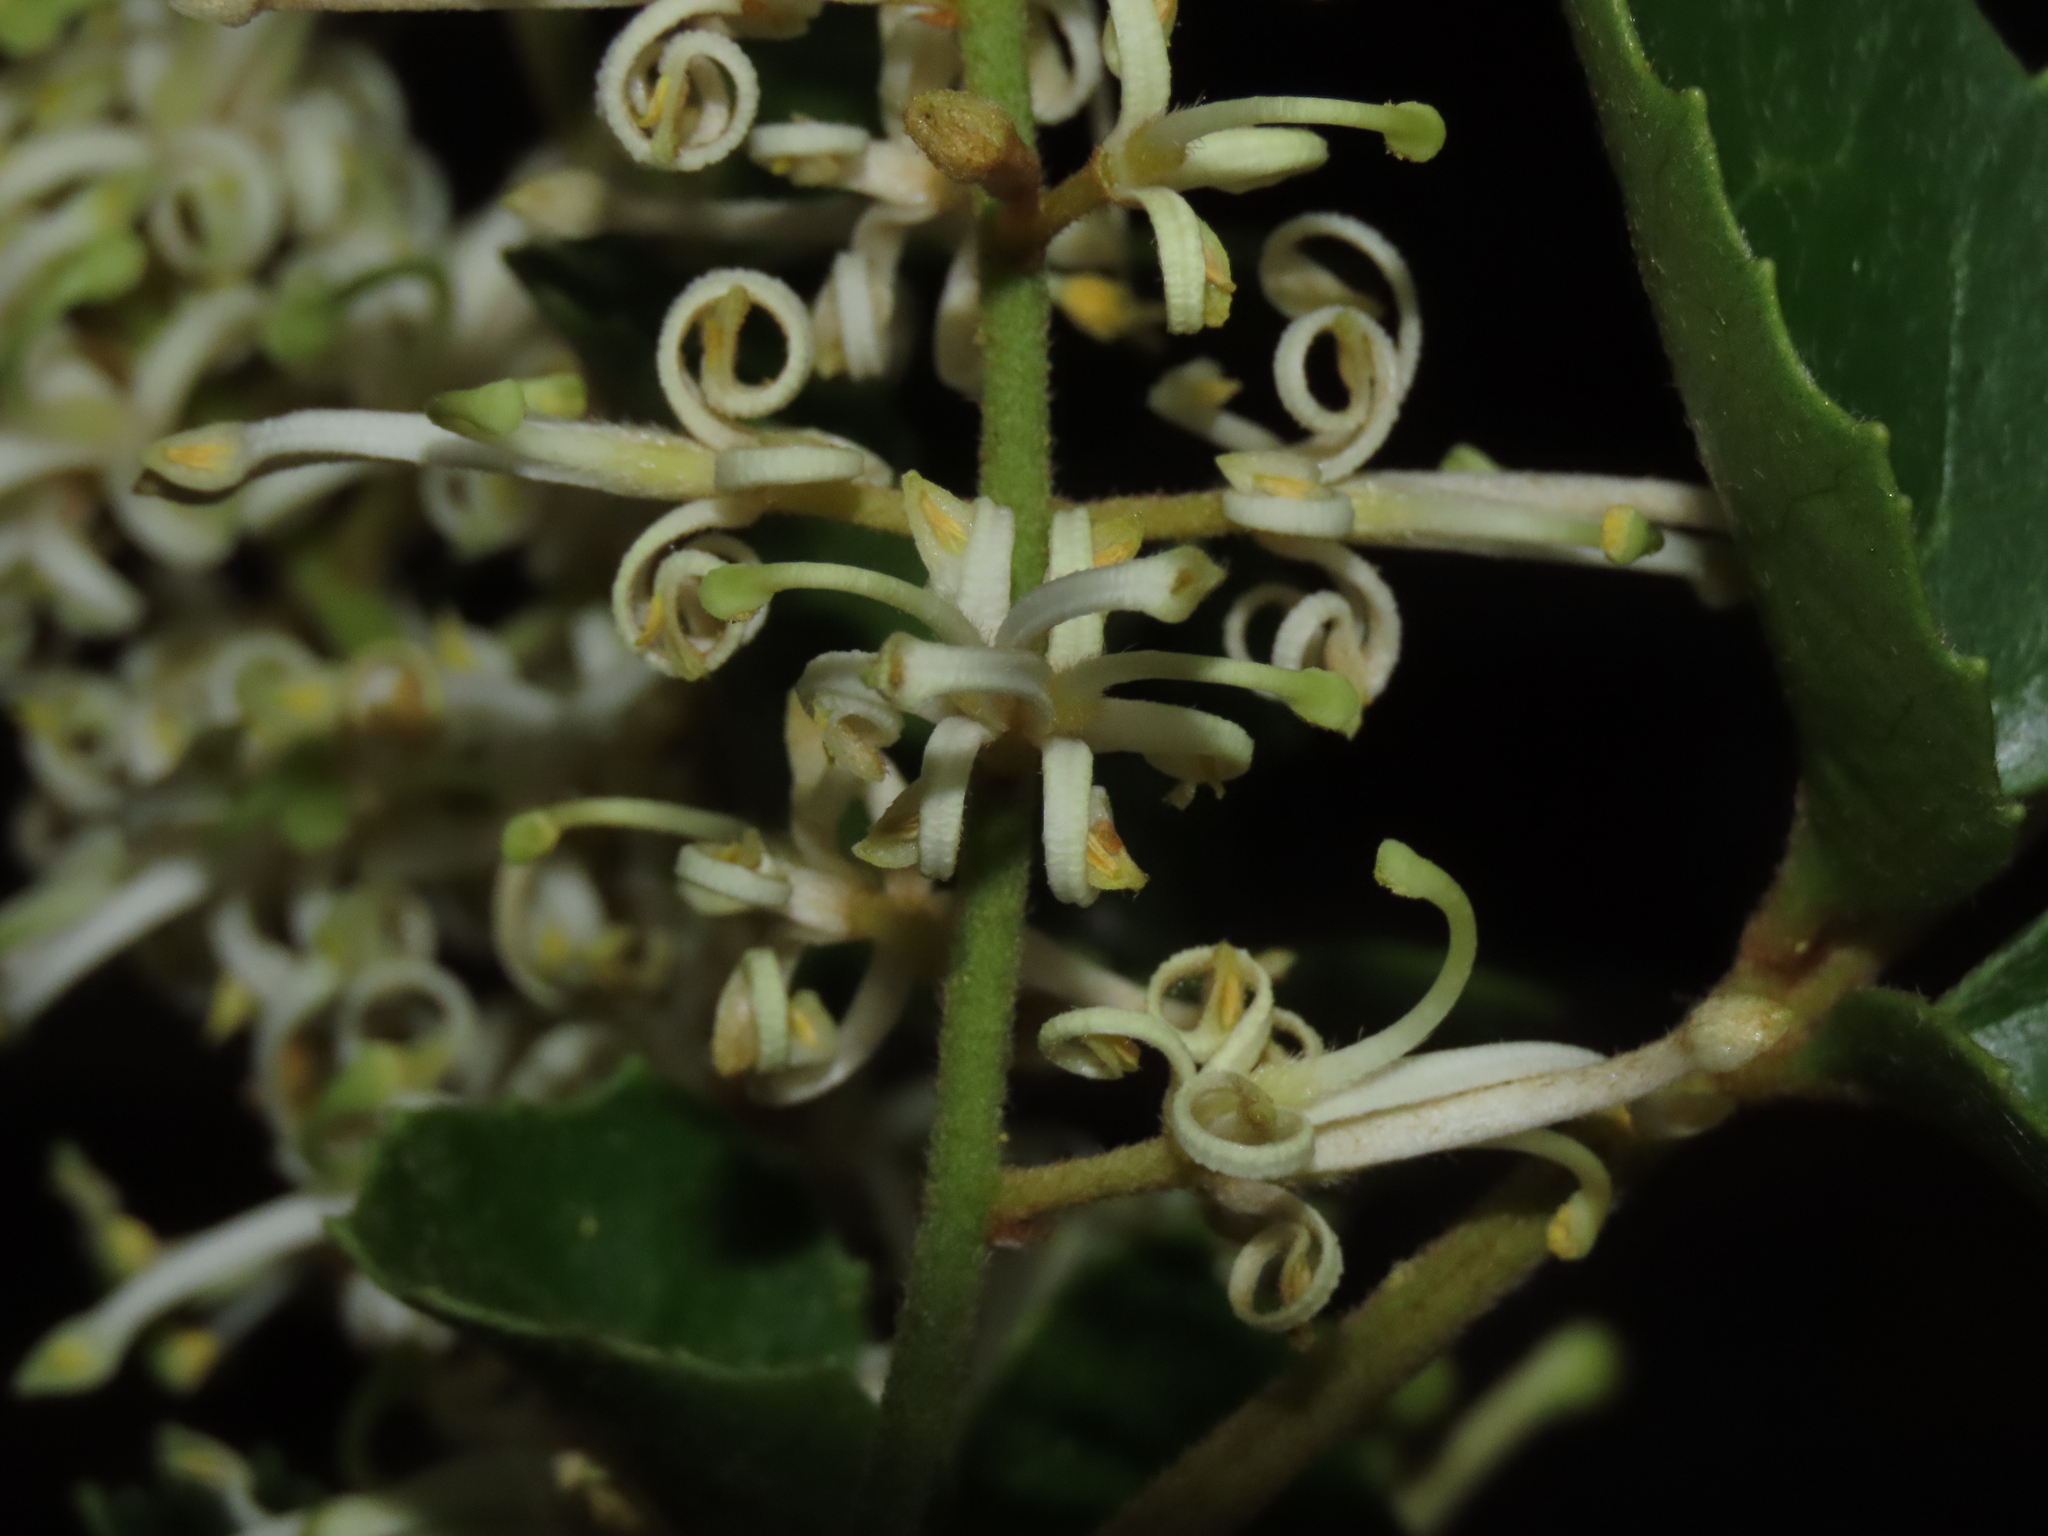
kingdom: Plantae
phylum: Tracheophyta
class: Magnoliopsida
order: Proteales
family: Proteaceae
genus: Gevuina
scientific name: Gevuina avellana
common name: Chilean hazel
